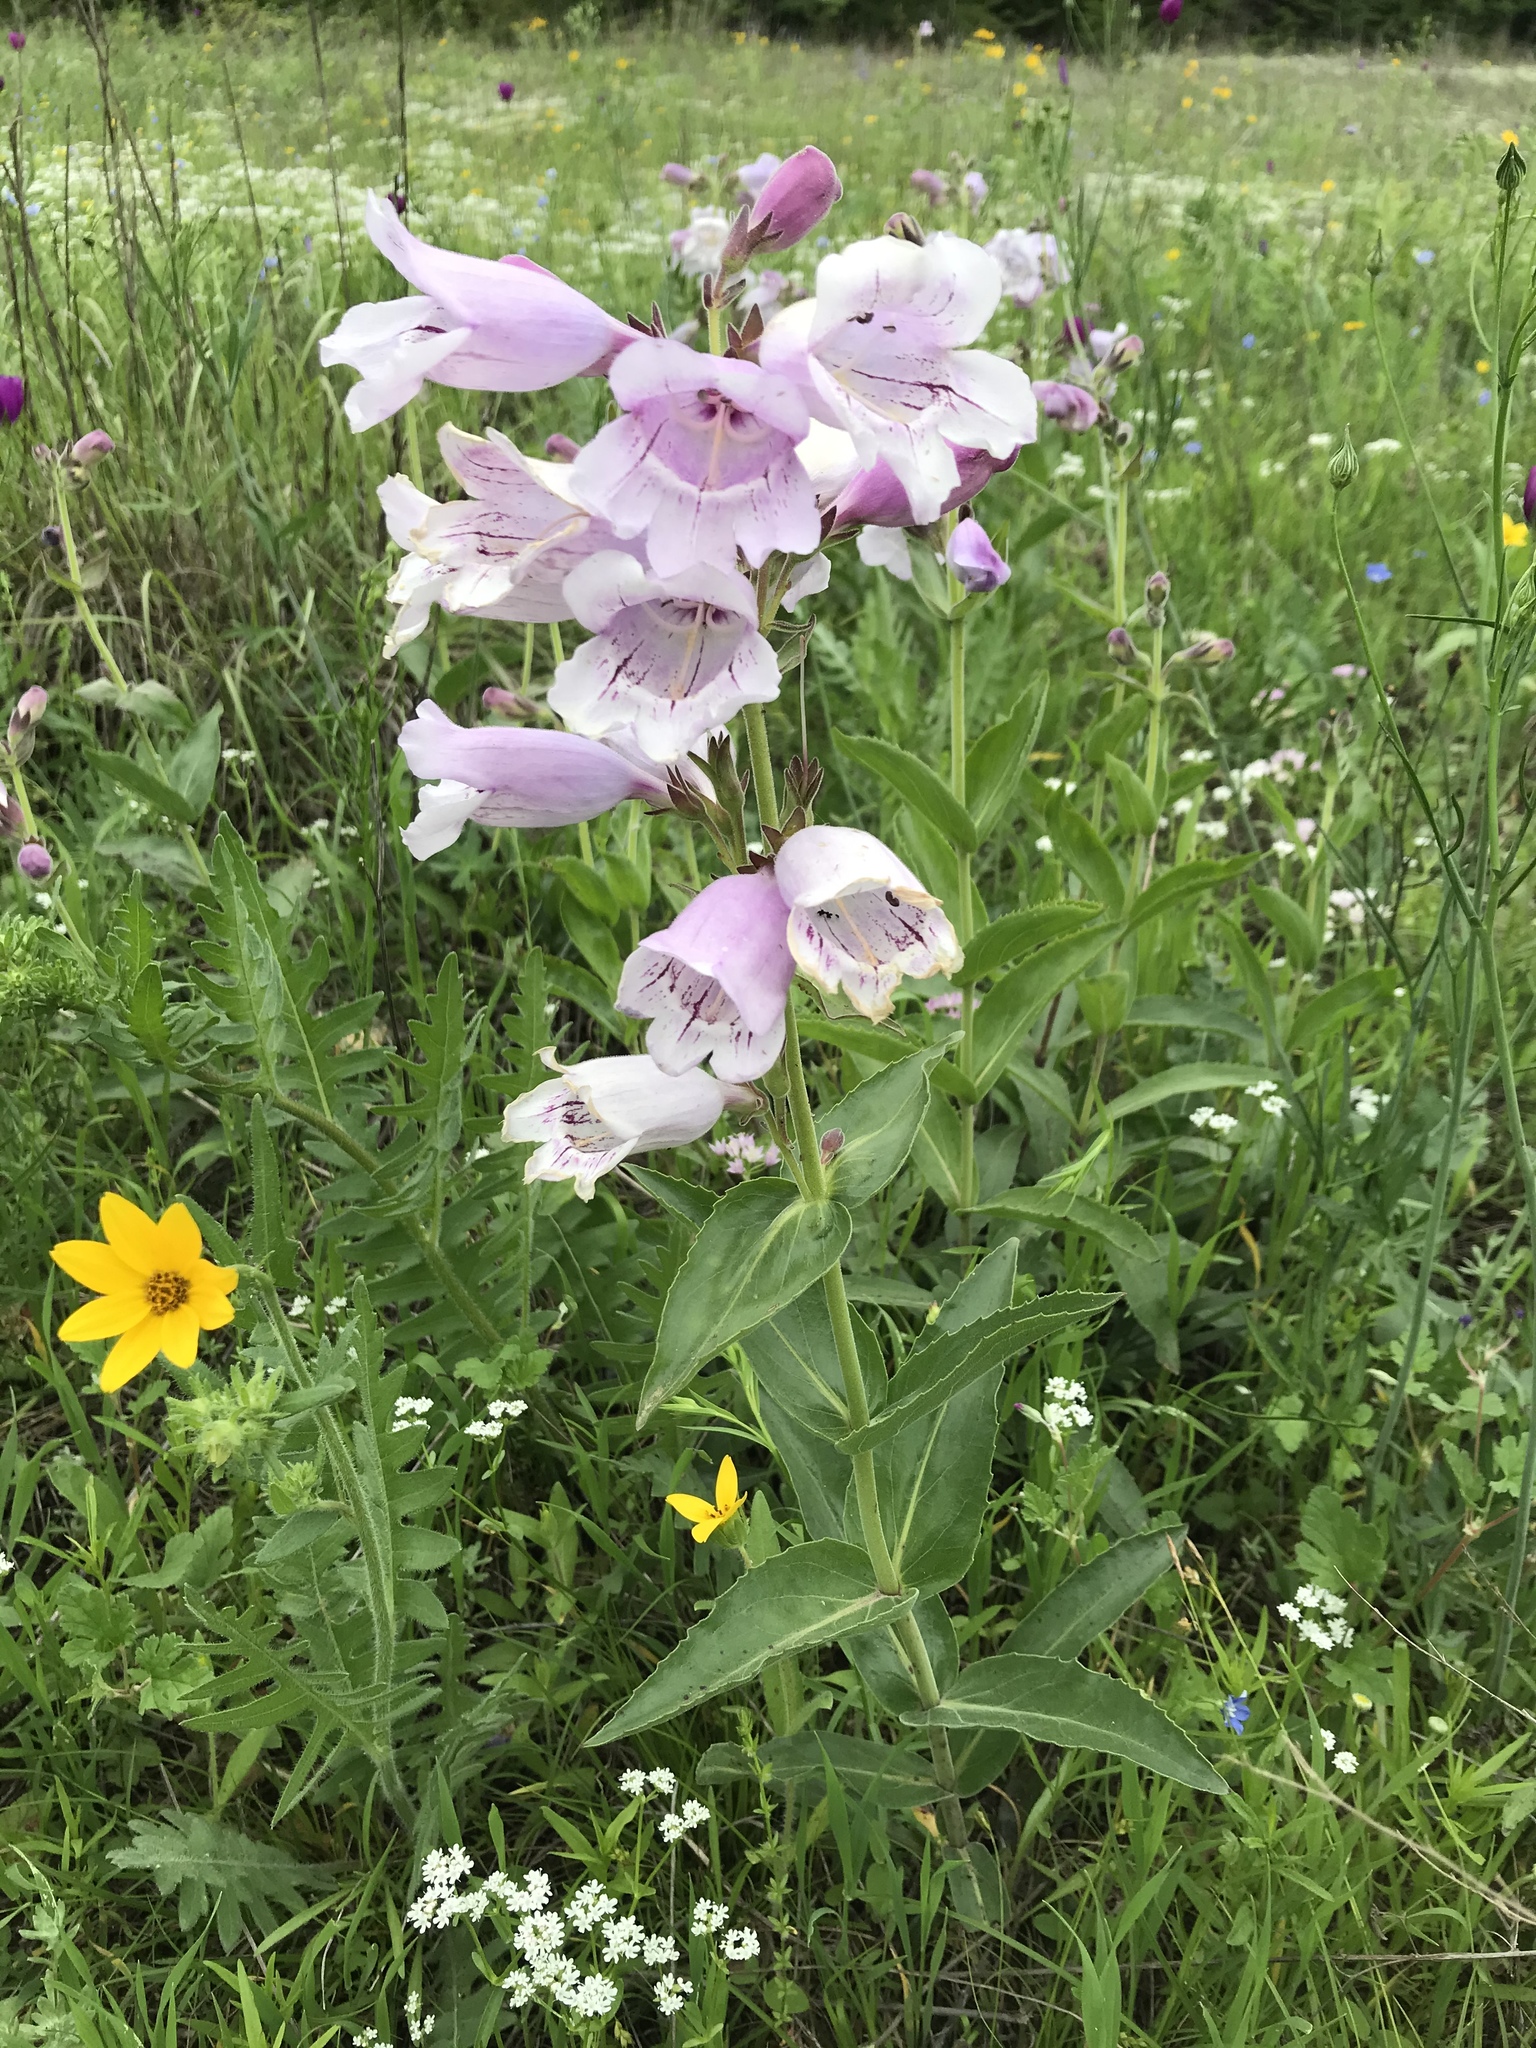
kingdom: Plantae
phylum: Tracheophyta
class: Magnoliopsida
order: Lamiales
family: Plantaginaceae
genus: Penstemon
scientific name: Penstemon cobaea
